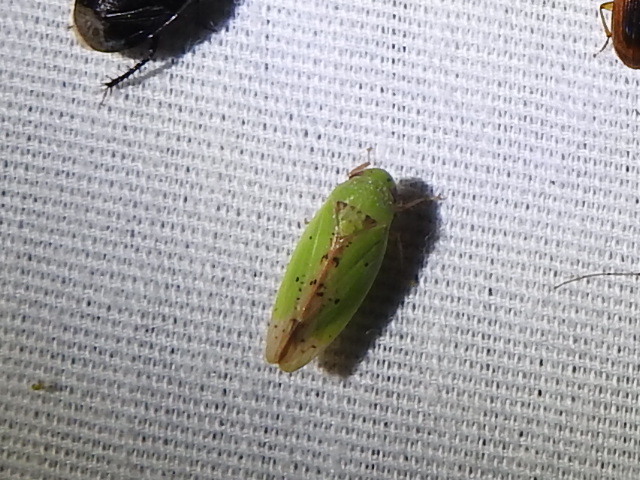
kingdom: Animalia
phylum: Arthropoda
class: Insecta
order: Hemiptera
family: Cicadellidae
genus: Ponana
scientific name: Ponana
